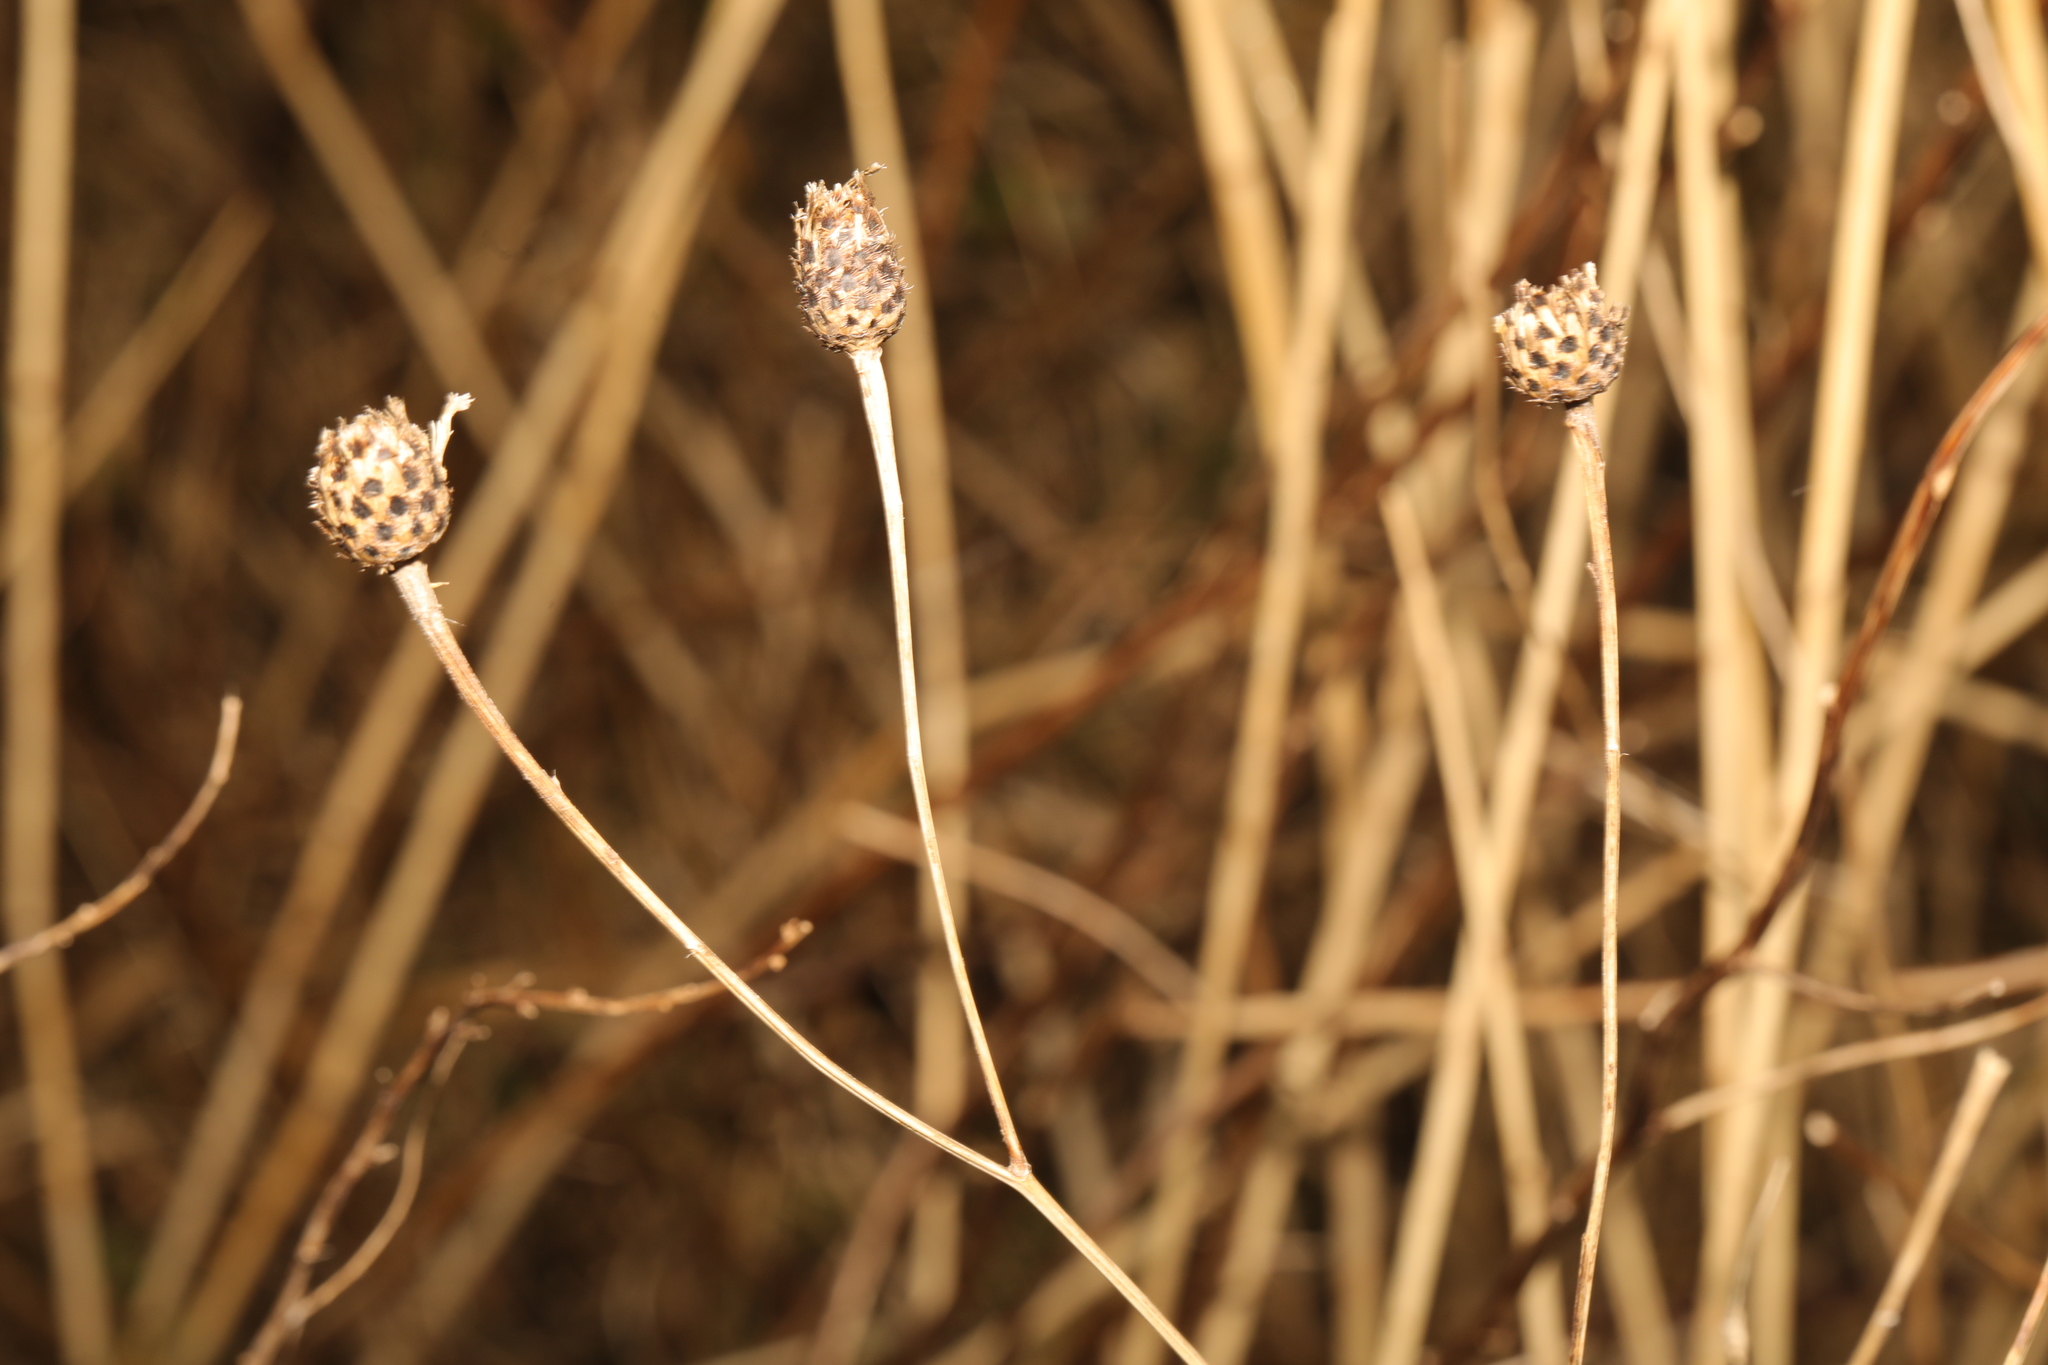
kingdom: Plantae
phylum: Tracheophyta
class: Magnoliopsida
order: Asterales
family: Asteraceae
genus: Centaurea
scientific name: Centaurea nigra
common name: Lesser knapweed
